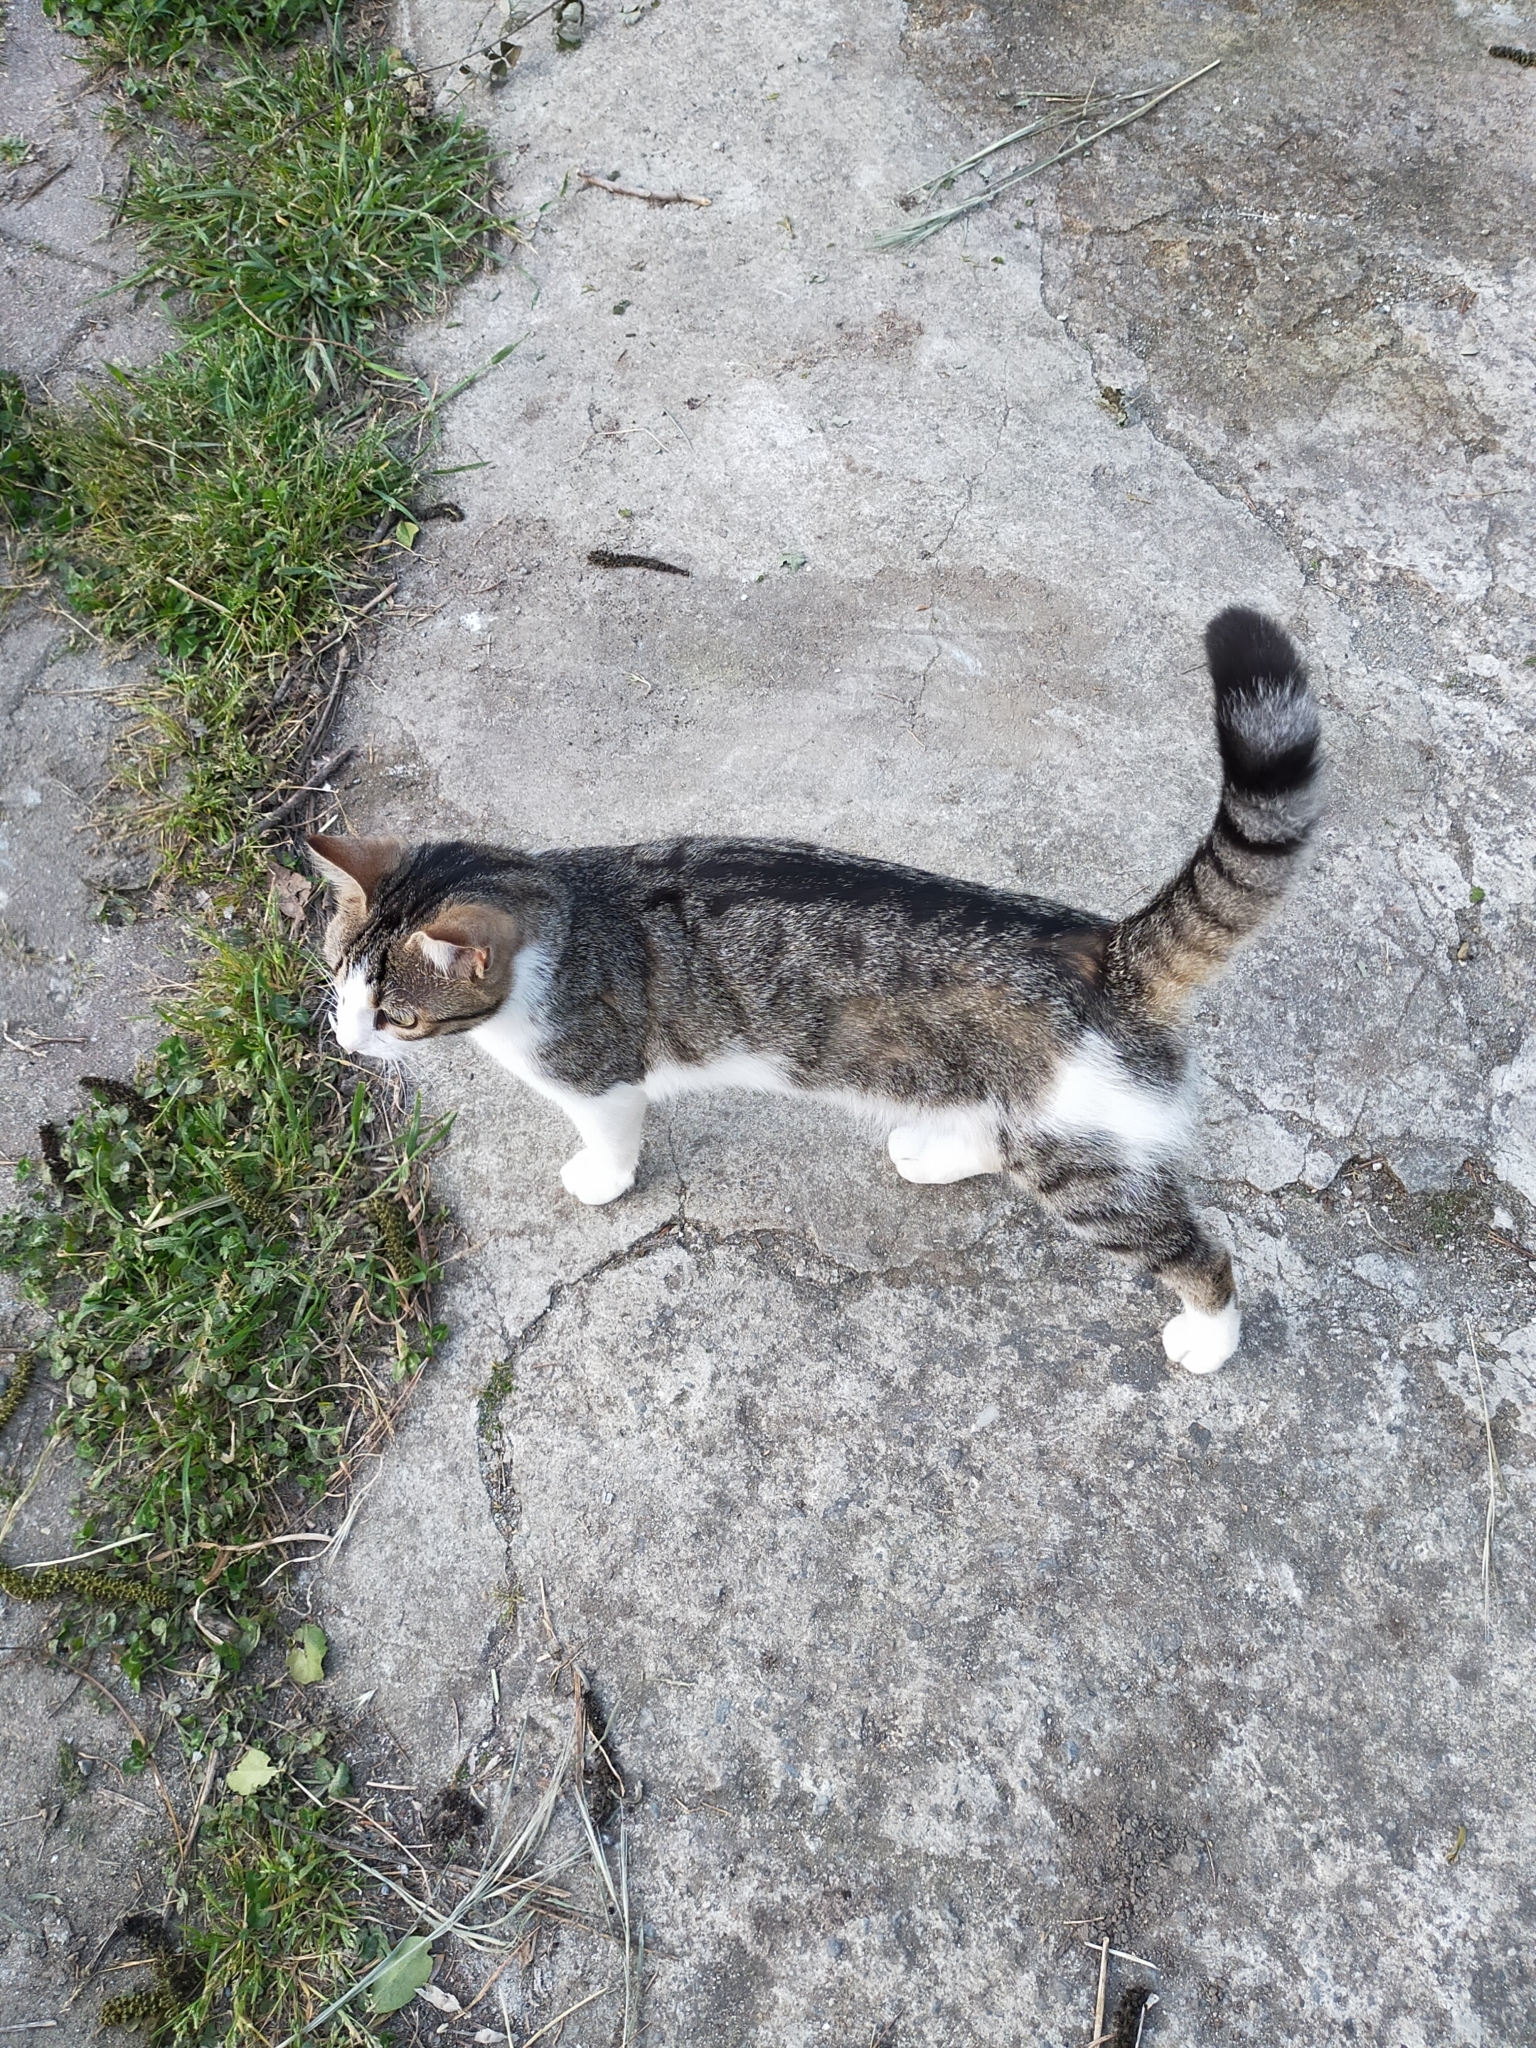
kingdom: Animalia
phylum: Chordata
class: Mammalia
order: Carnivora
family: Felidae
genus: Felis
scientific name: Felis catus
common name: Domestic cat
